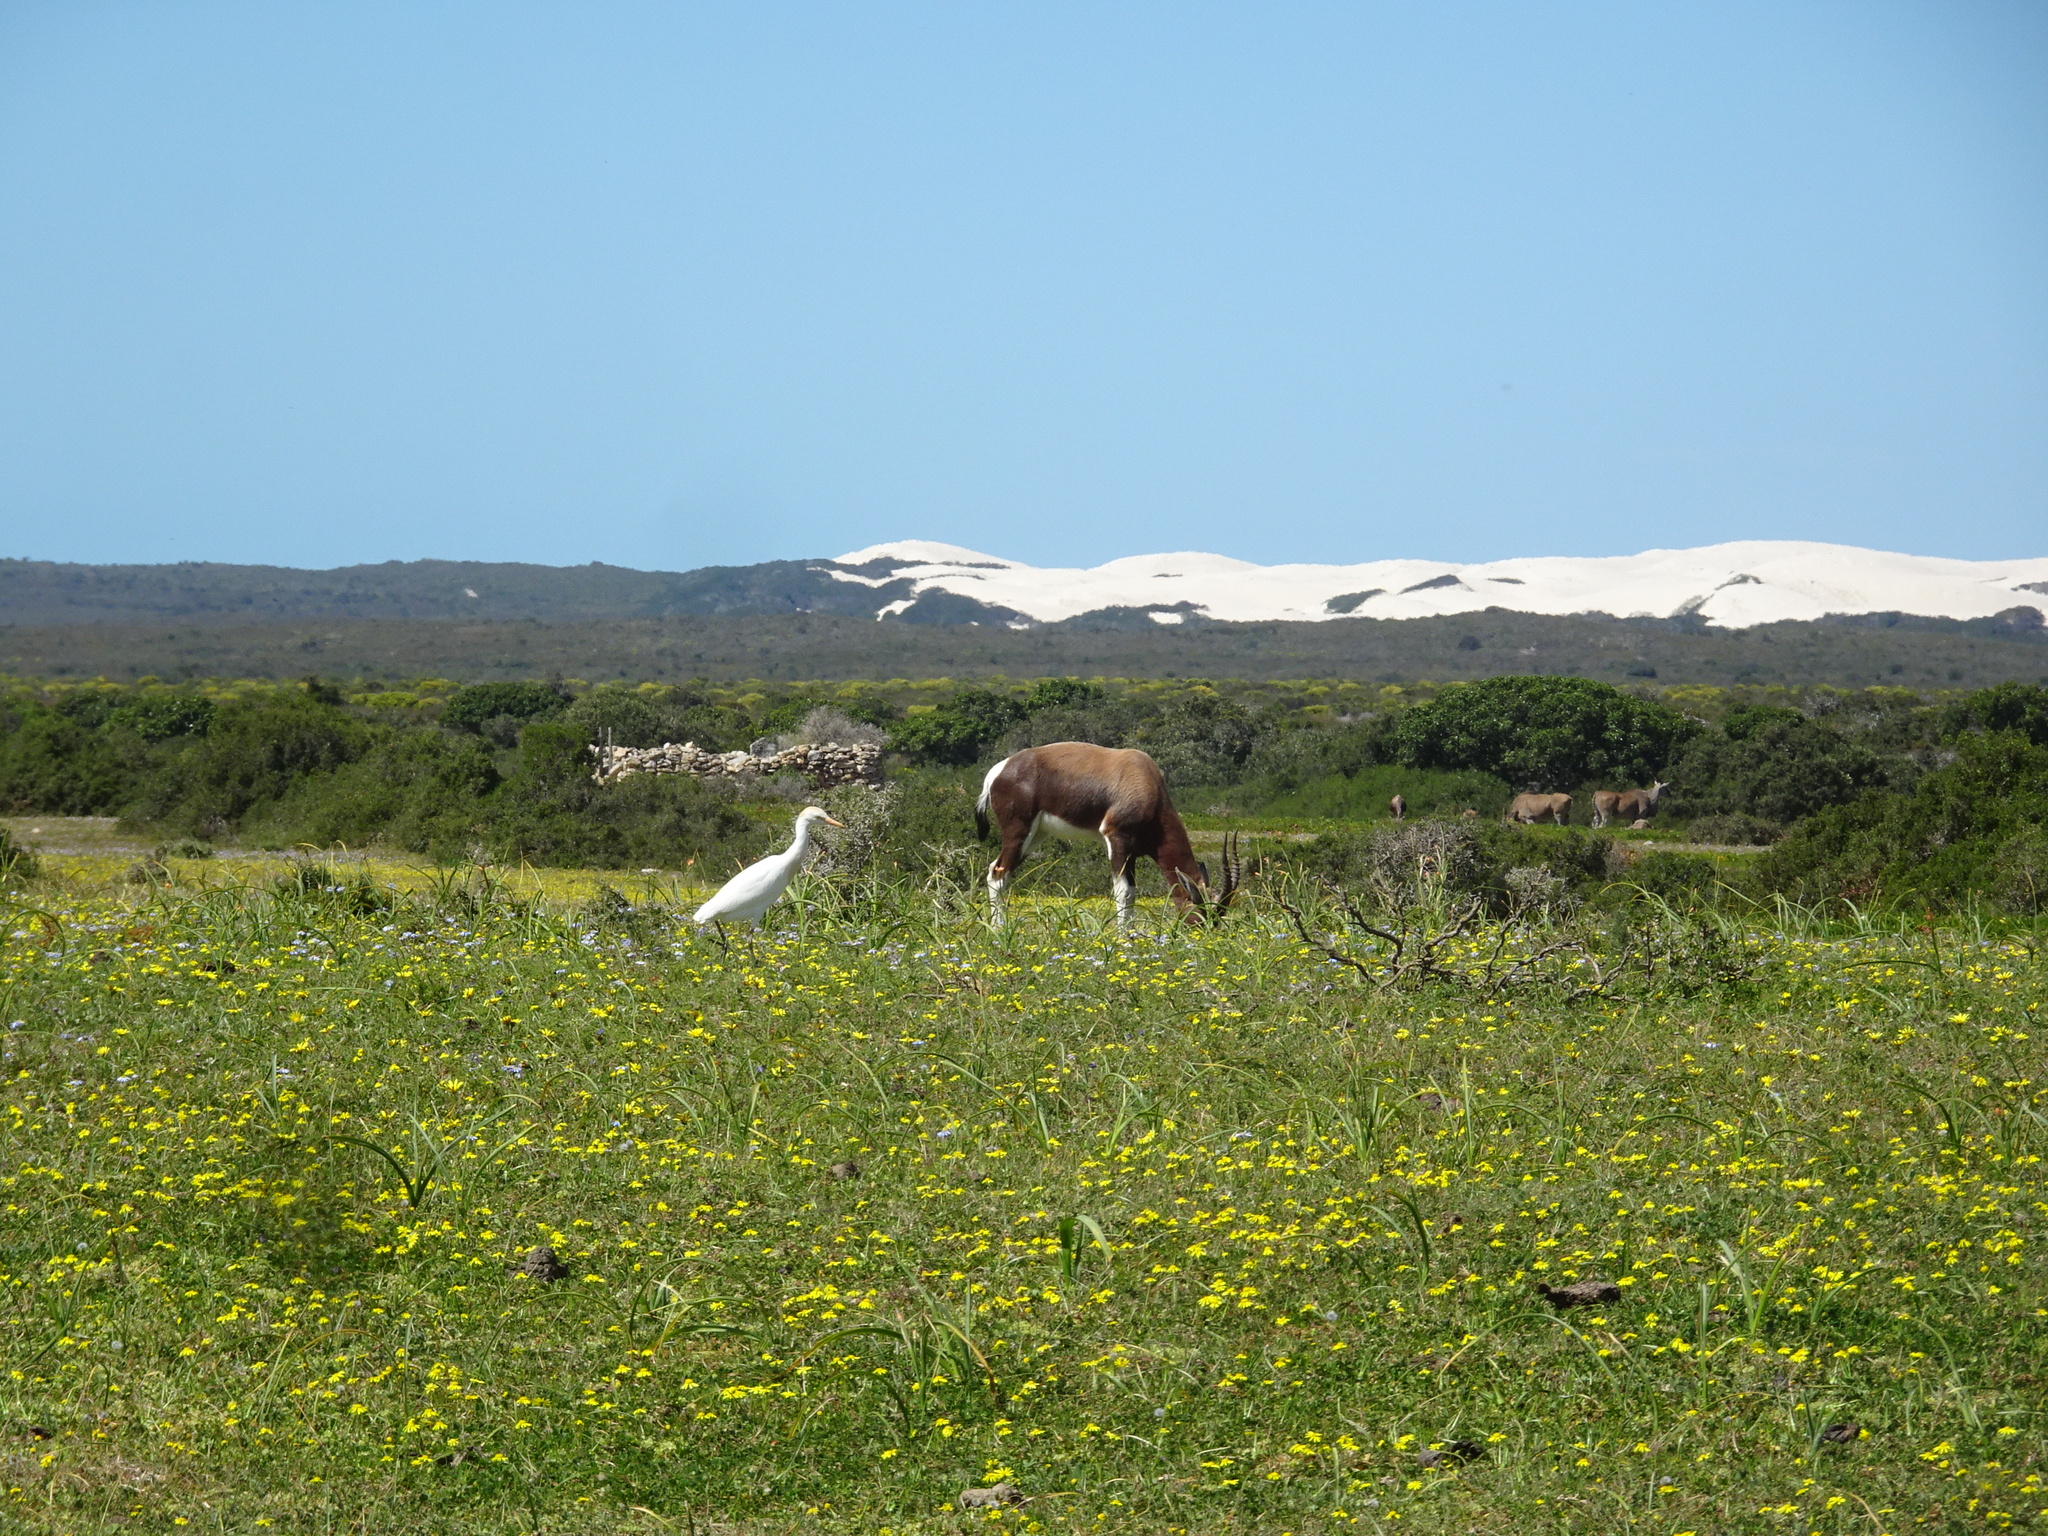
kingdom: Animalia
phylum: Chordata
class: Aves
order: Pelecaniformes
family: Ardeidae
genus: Bubulcus
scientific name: Bubulcus ibis
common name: Cattle egret
